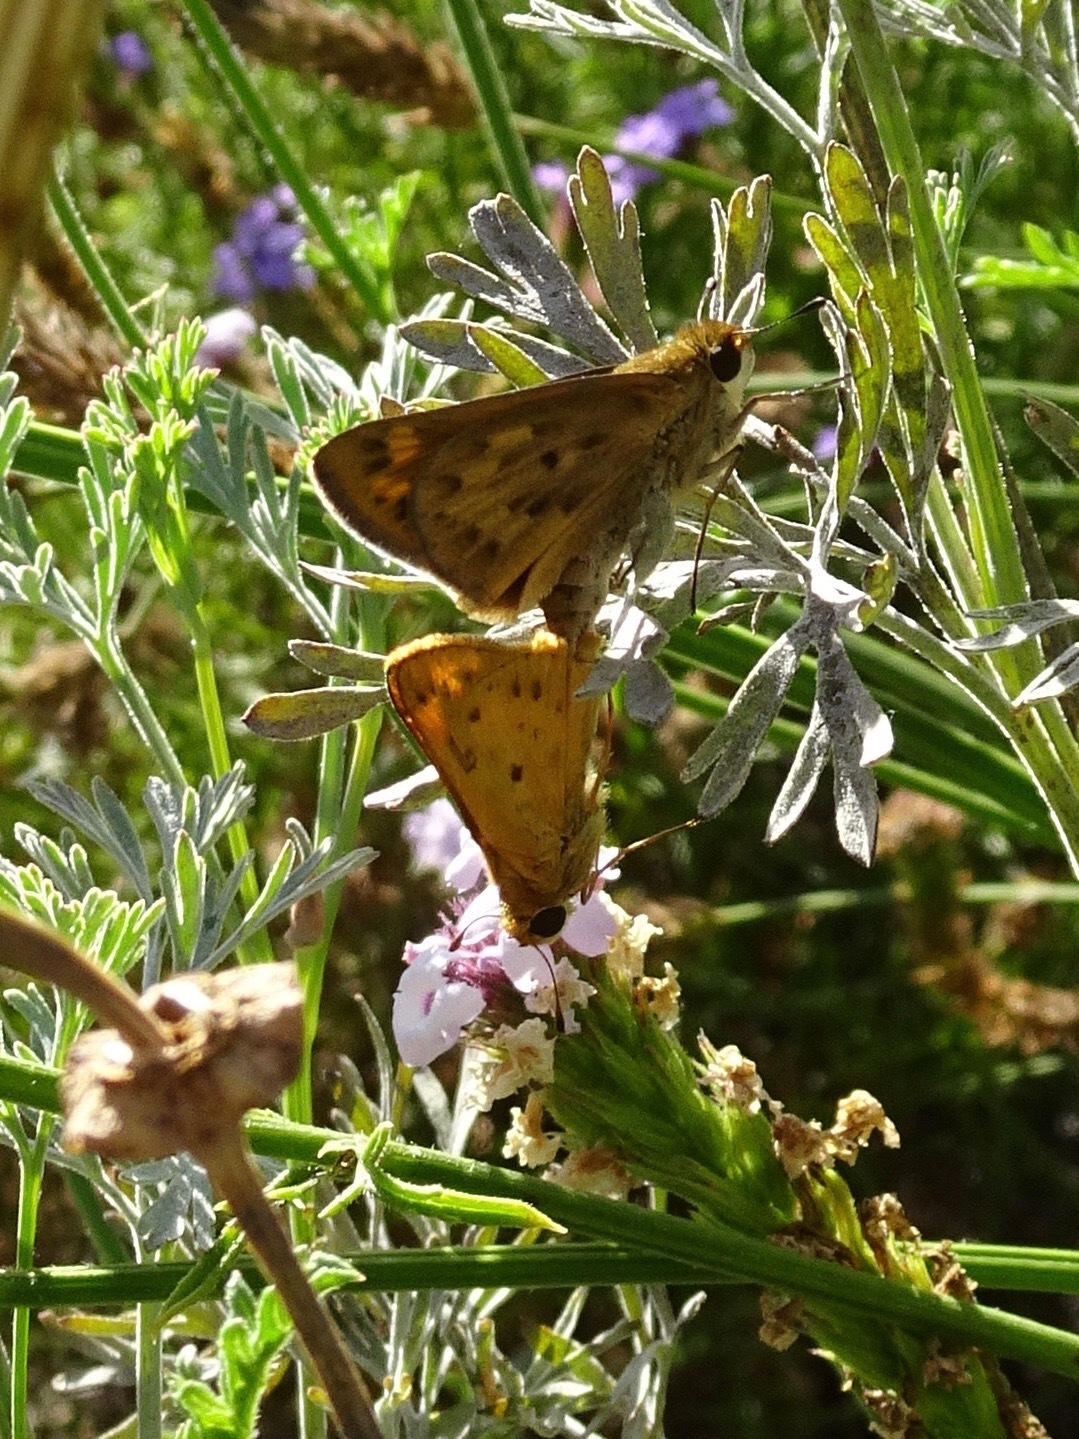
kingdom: Animalia
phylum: Arthropoda
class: Insecta
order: Lepidoptera
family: Hesperiidae
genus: Hylephila
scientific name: Hylephila phyleus
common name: Fiery skipper
